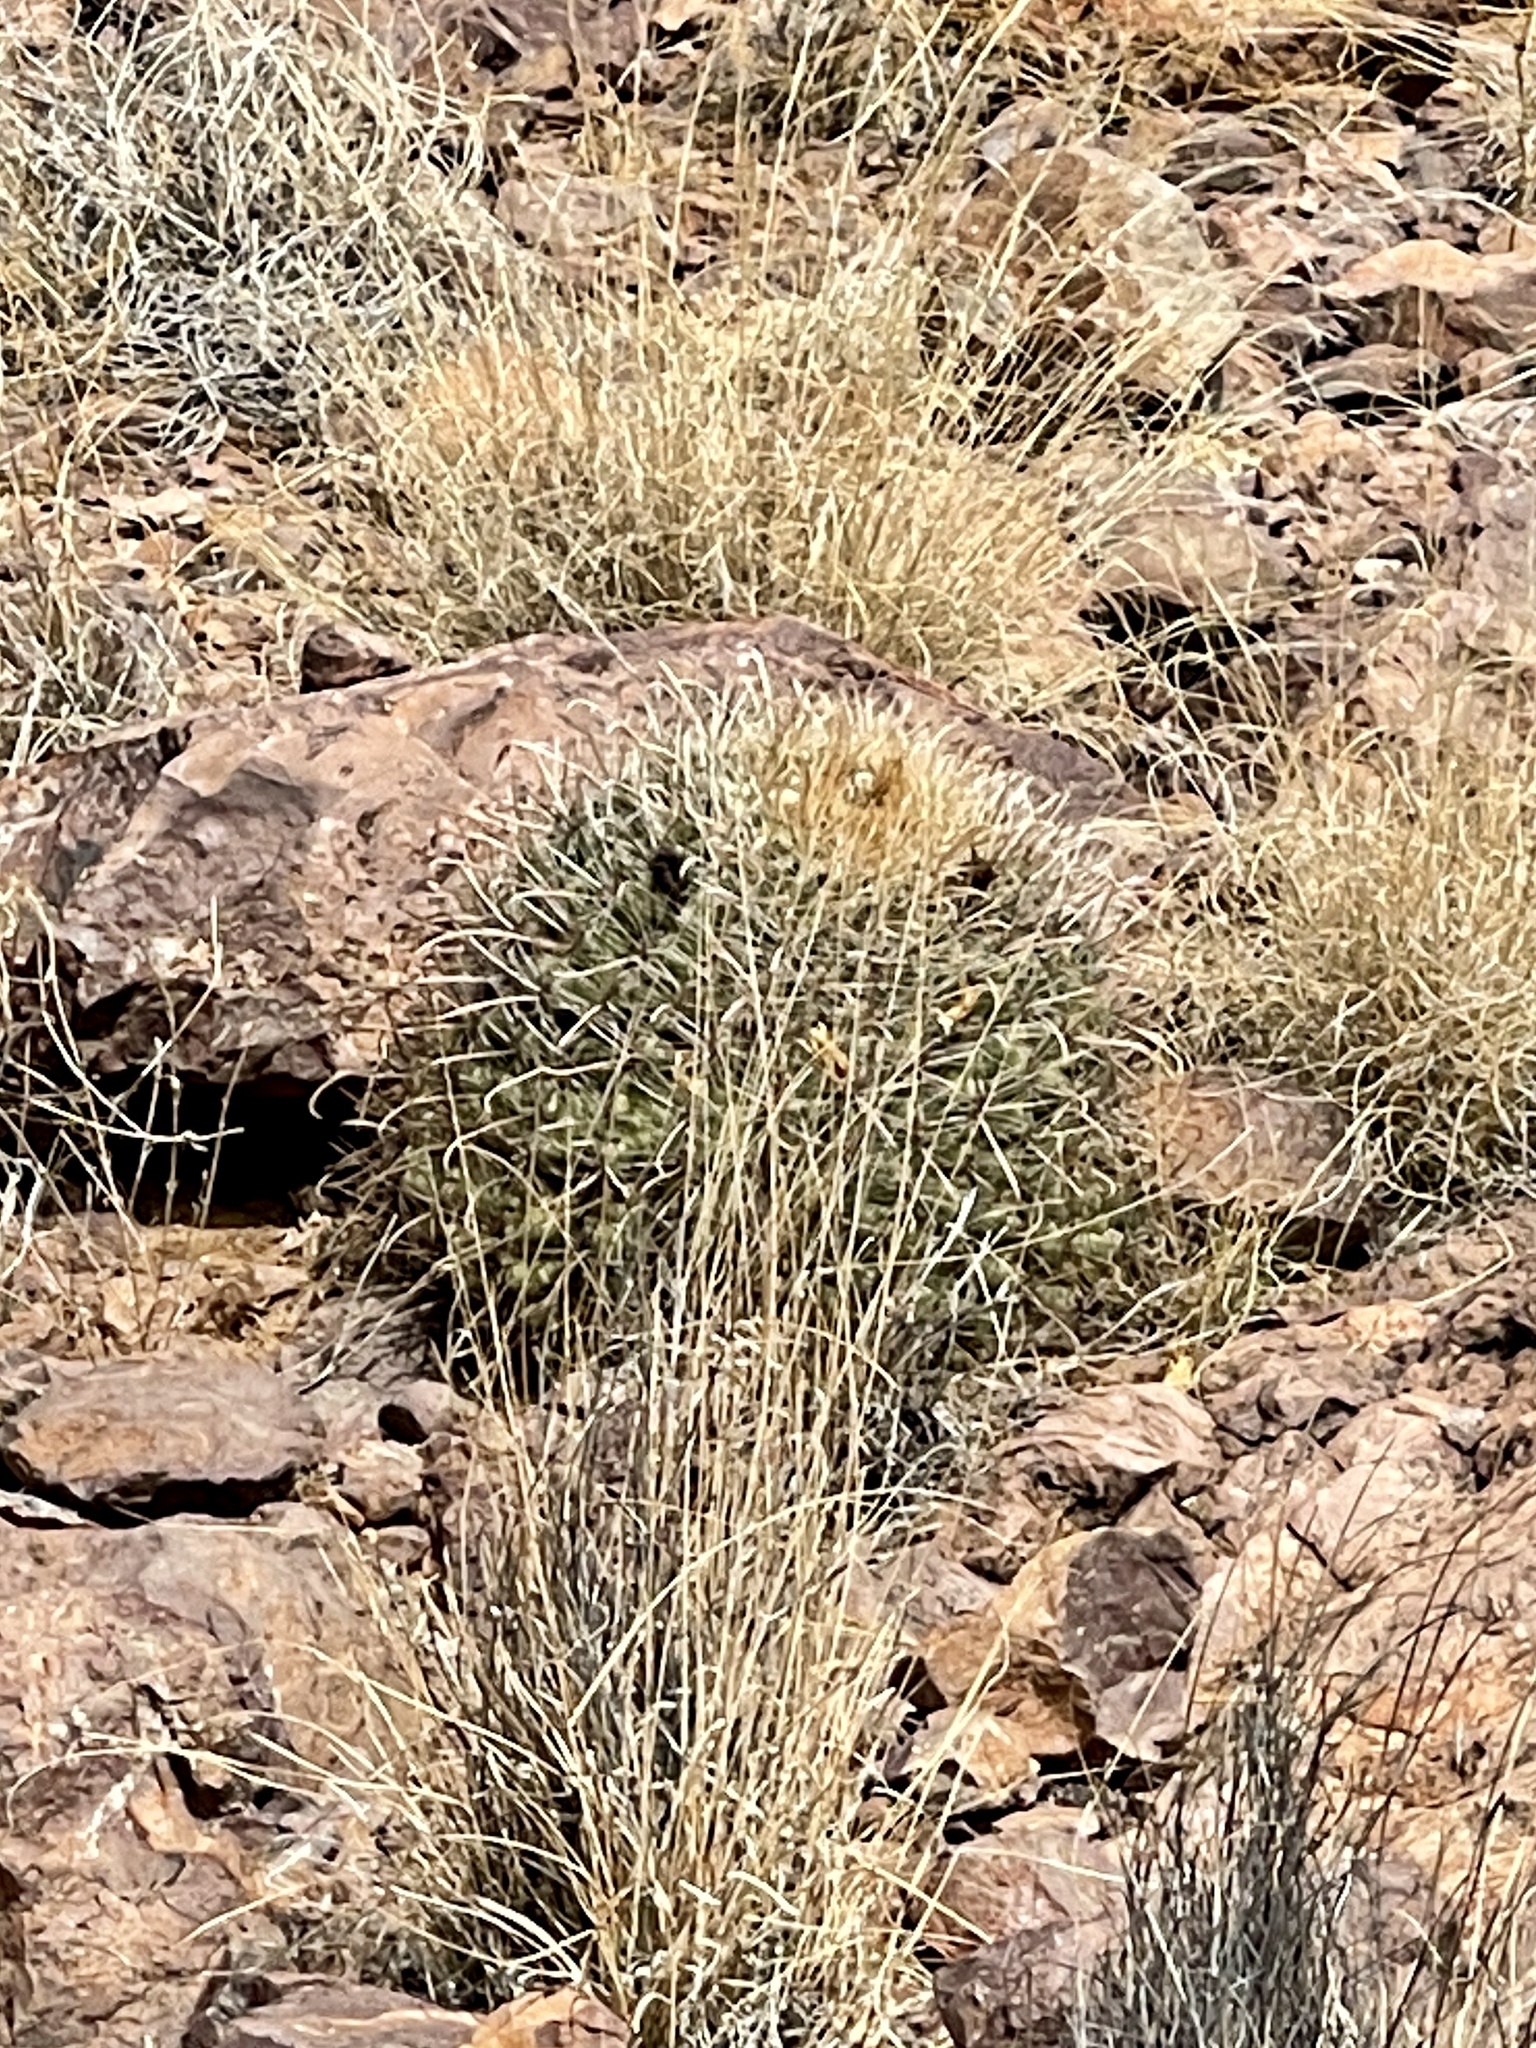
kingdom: Plantae
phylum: Tracheophyta
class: Magnoliopsida
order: Caryophyllales
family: Cactaceae
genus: Ferocactus
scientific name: Ferocactus wislizeni
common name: Candy barrel cactus
